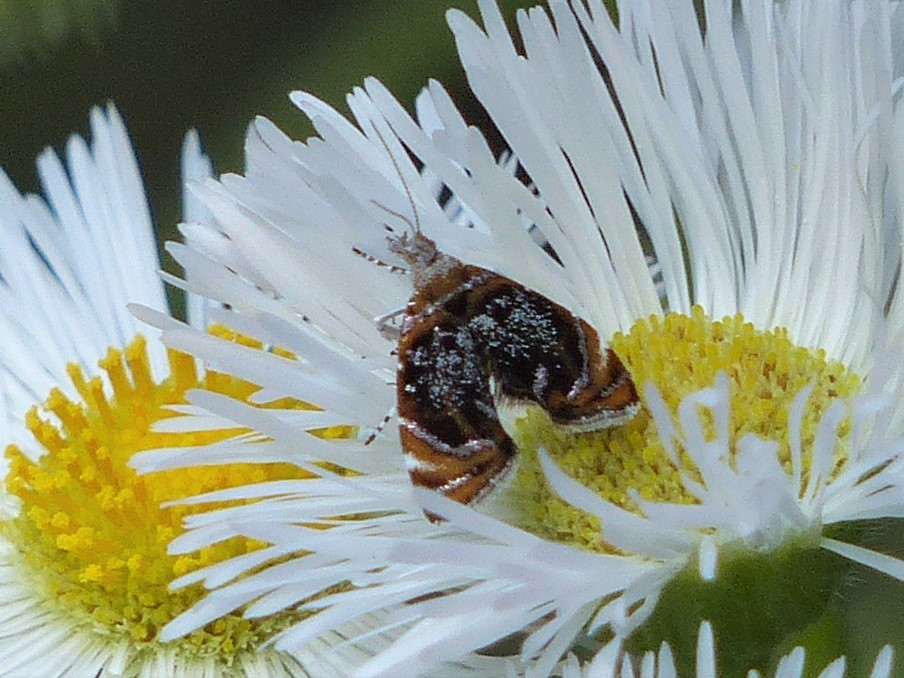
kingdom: Animalia
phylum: Arthropoda
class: Insecta
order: Lepidoptera
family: Choreutidae
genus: Prochoreutis
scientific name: Prochoreutis inflatella
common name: Skullcap skeletonizer moth
